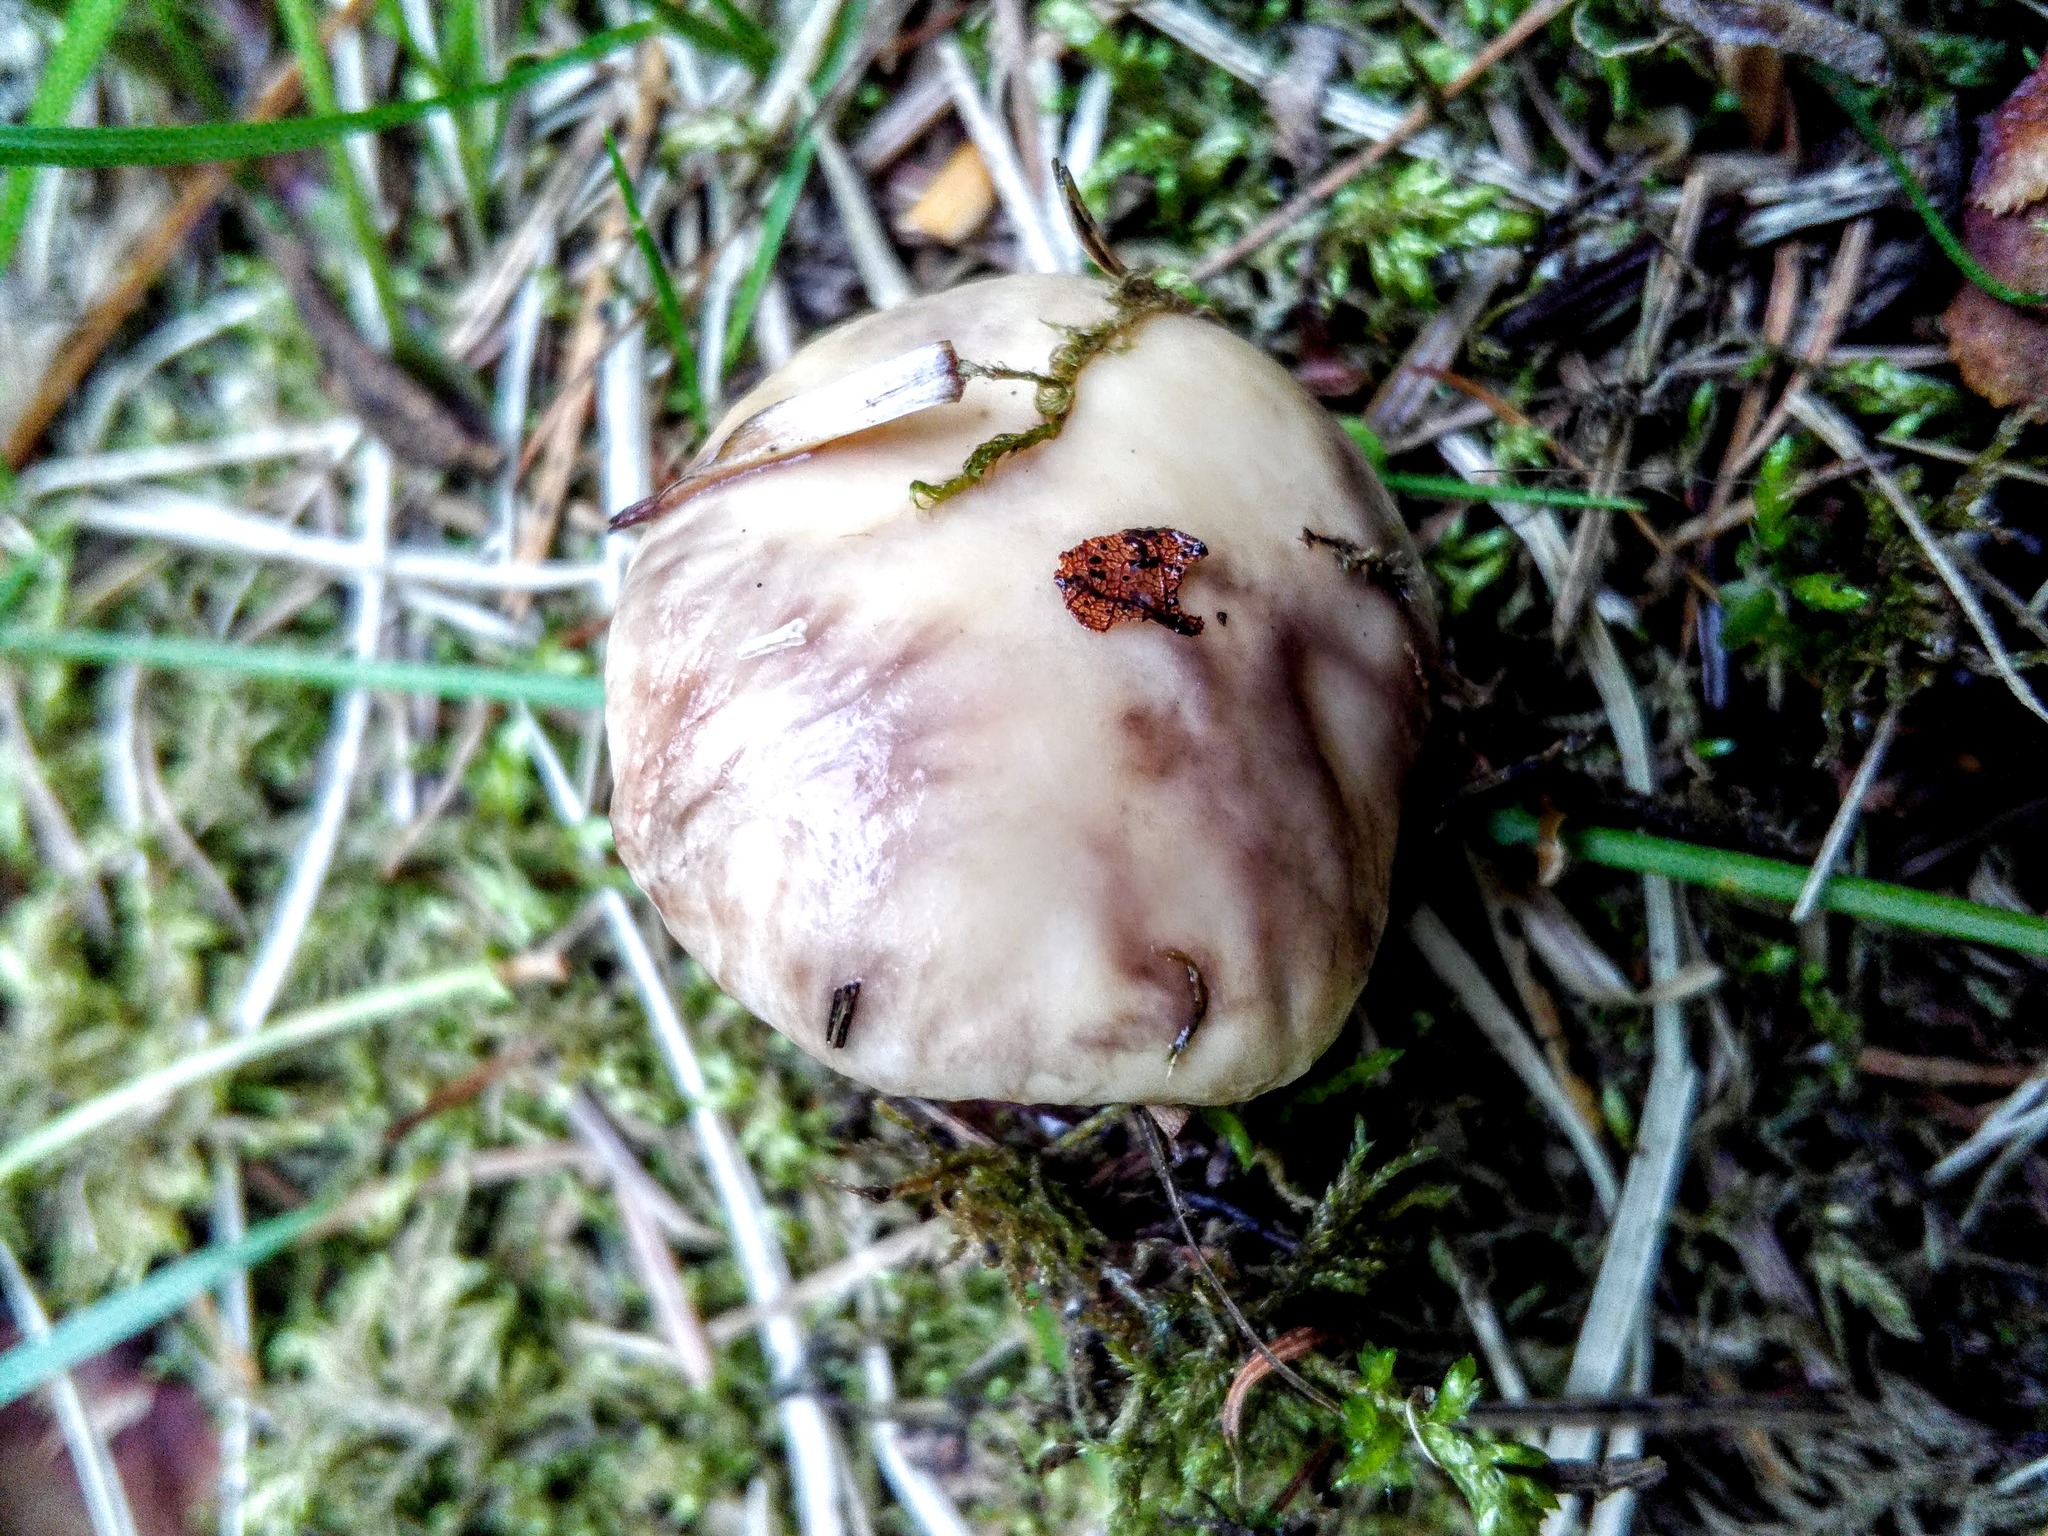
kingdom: Fungi
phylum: Basidiomycota
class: Agaricomycetes
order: Boletales
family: Suillaceae
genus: Suillus
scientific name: Suillus placidus
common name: Slippery white bolete
